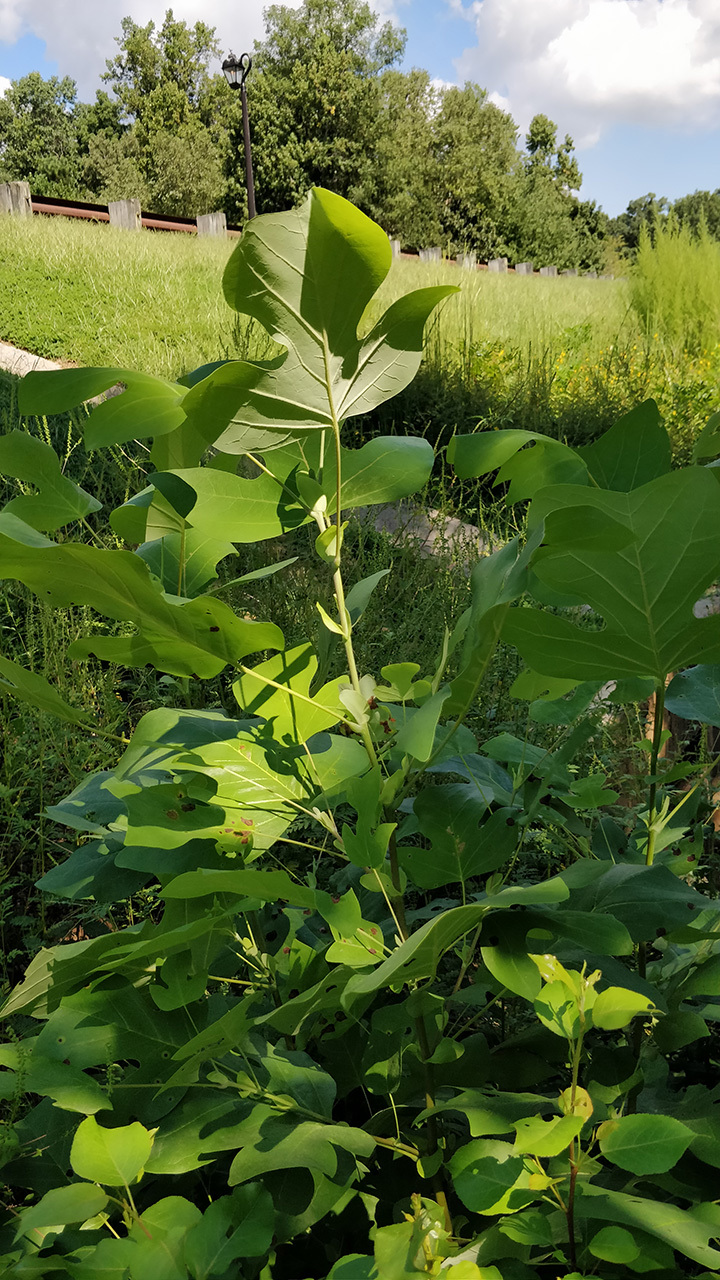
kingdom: Plantae
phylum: Tracheophyta
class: Magnoliopsida
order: Magnoliales
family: Magnoliaceae
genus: Liriodendron
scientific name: Liriodendron tulipifera
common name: Tulip tree
